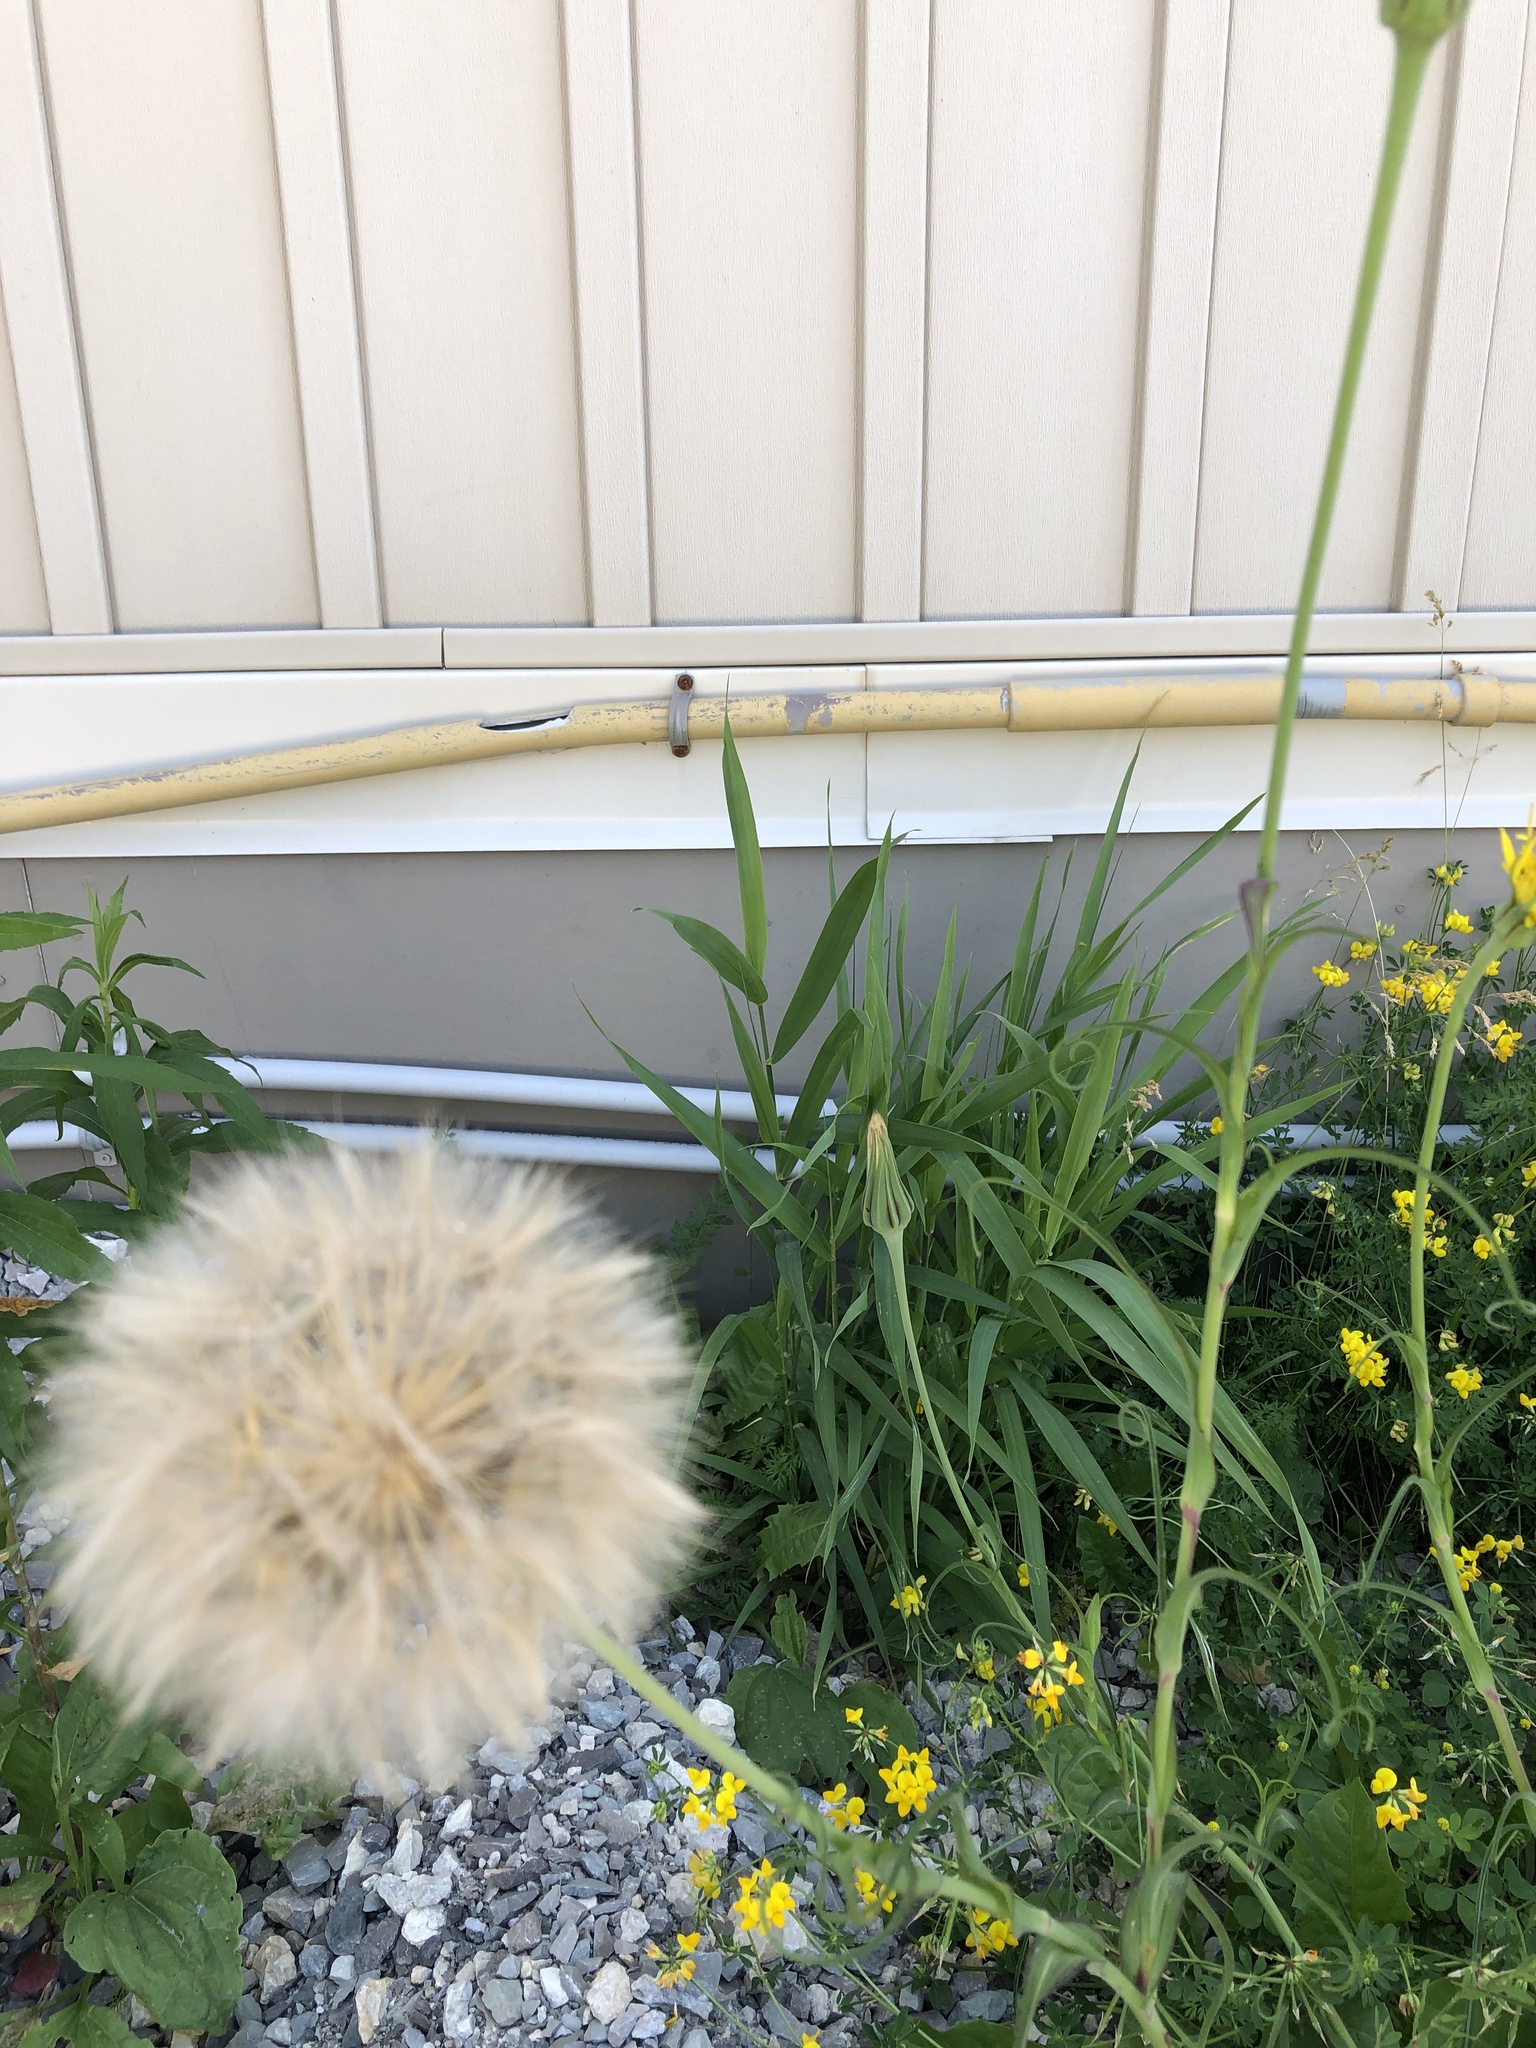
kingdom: Plantae
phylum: Tracheophyta
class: Magnoliopsida
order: Asterales
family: Asteraceae
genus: Tragopogon
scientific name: Tragopogon pratensis
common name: Goat's-beard
